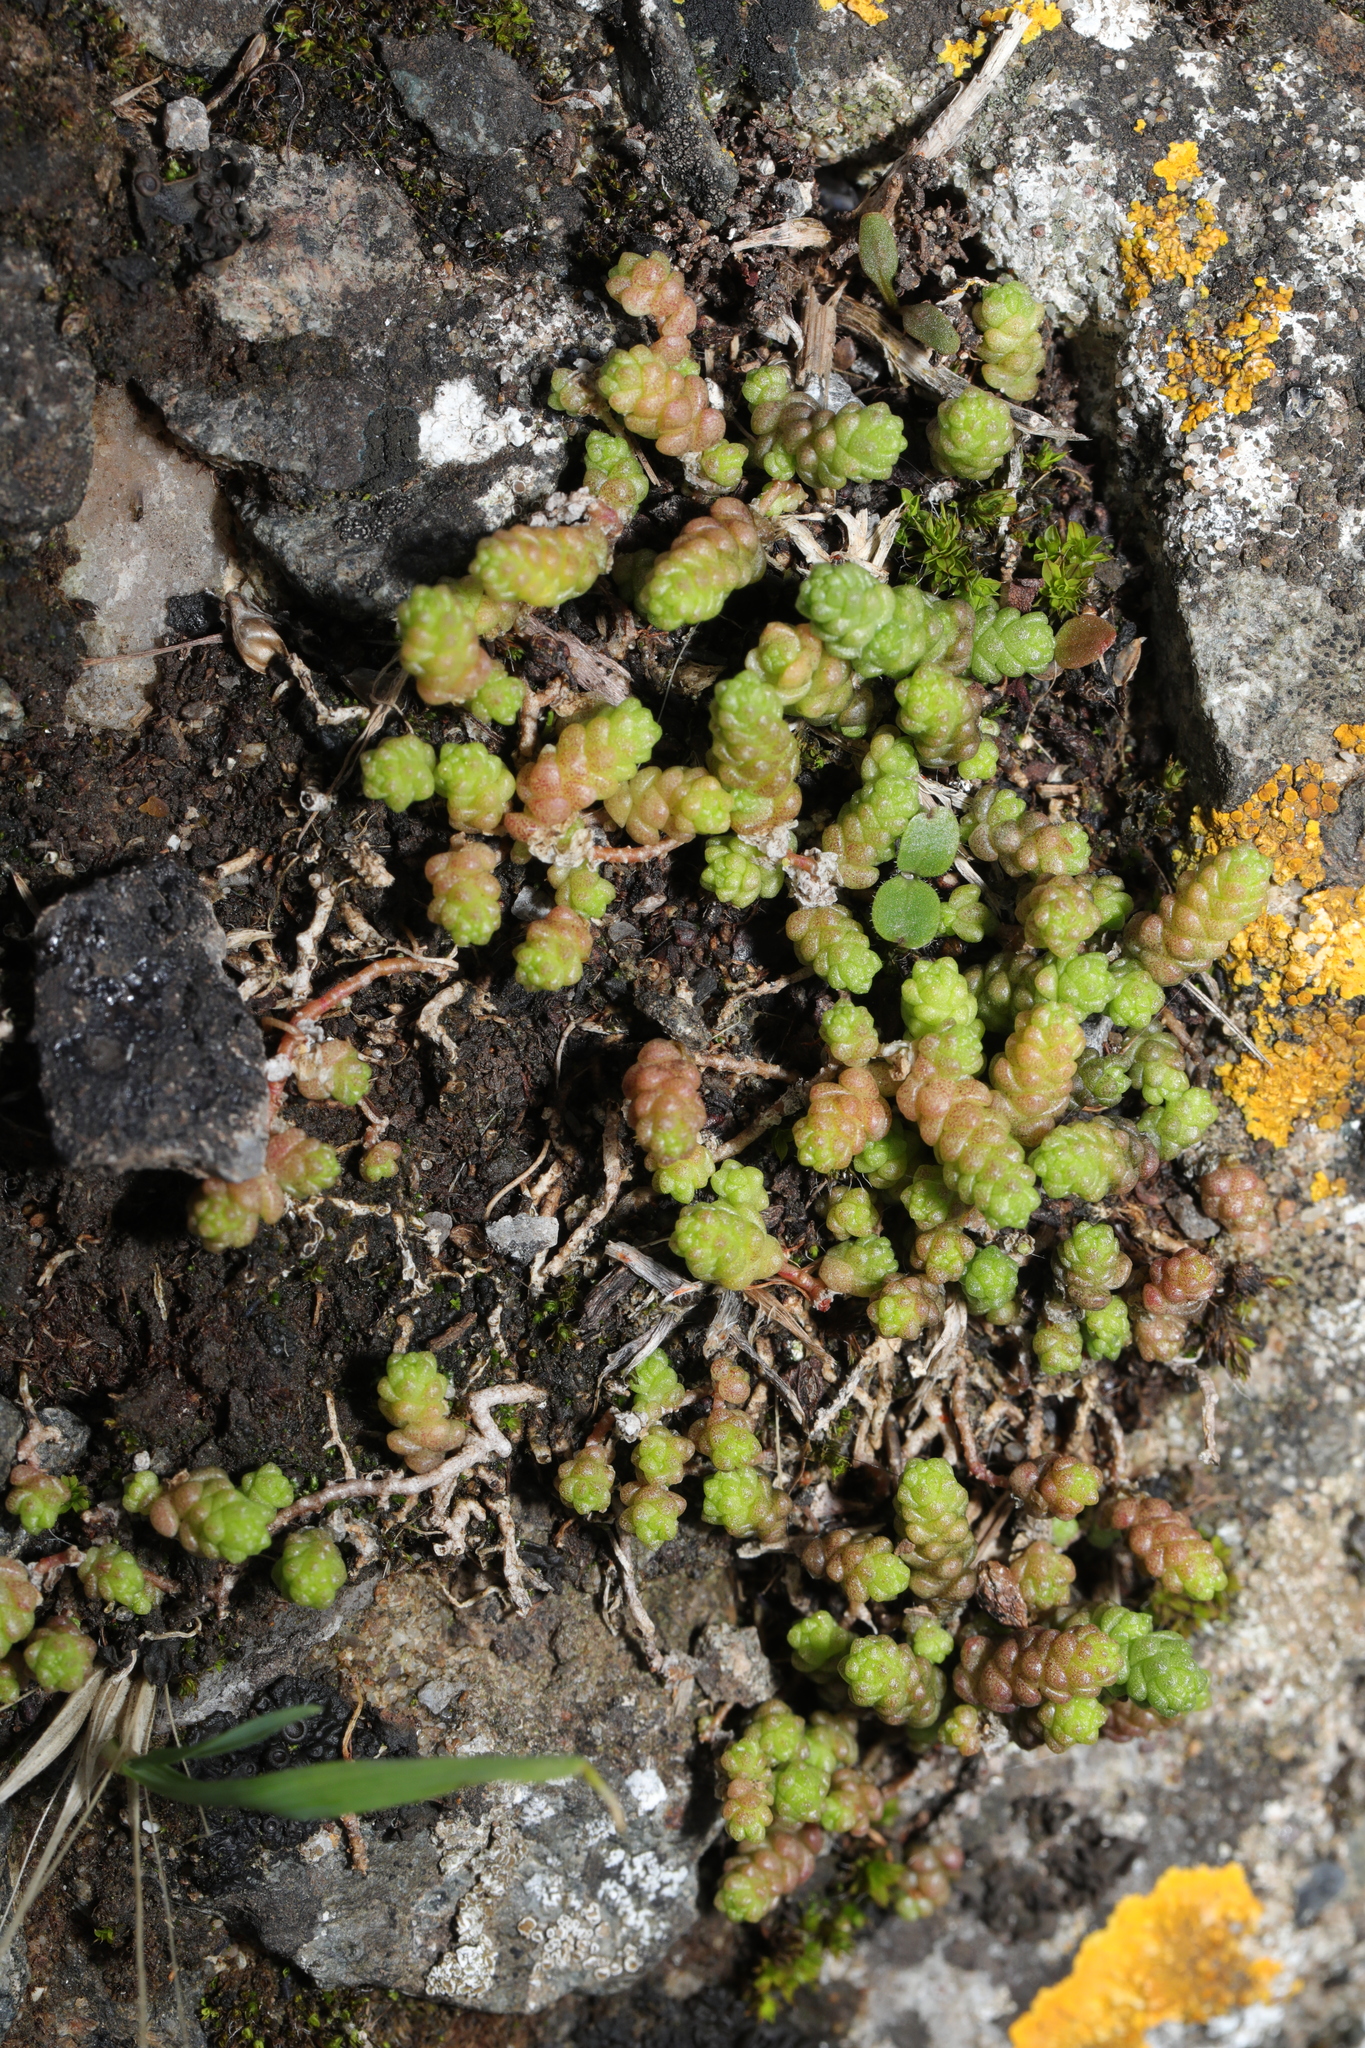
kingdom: Plantae
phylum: Tracheophyta
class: Magnoliopsida
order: Saxifragales
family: Crassulaceae
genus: Sedum
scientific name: Sedum acre
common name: Biting stonecrop
